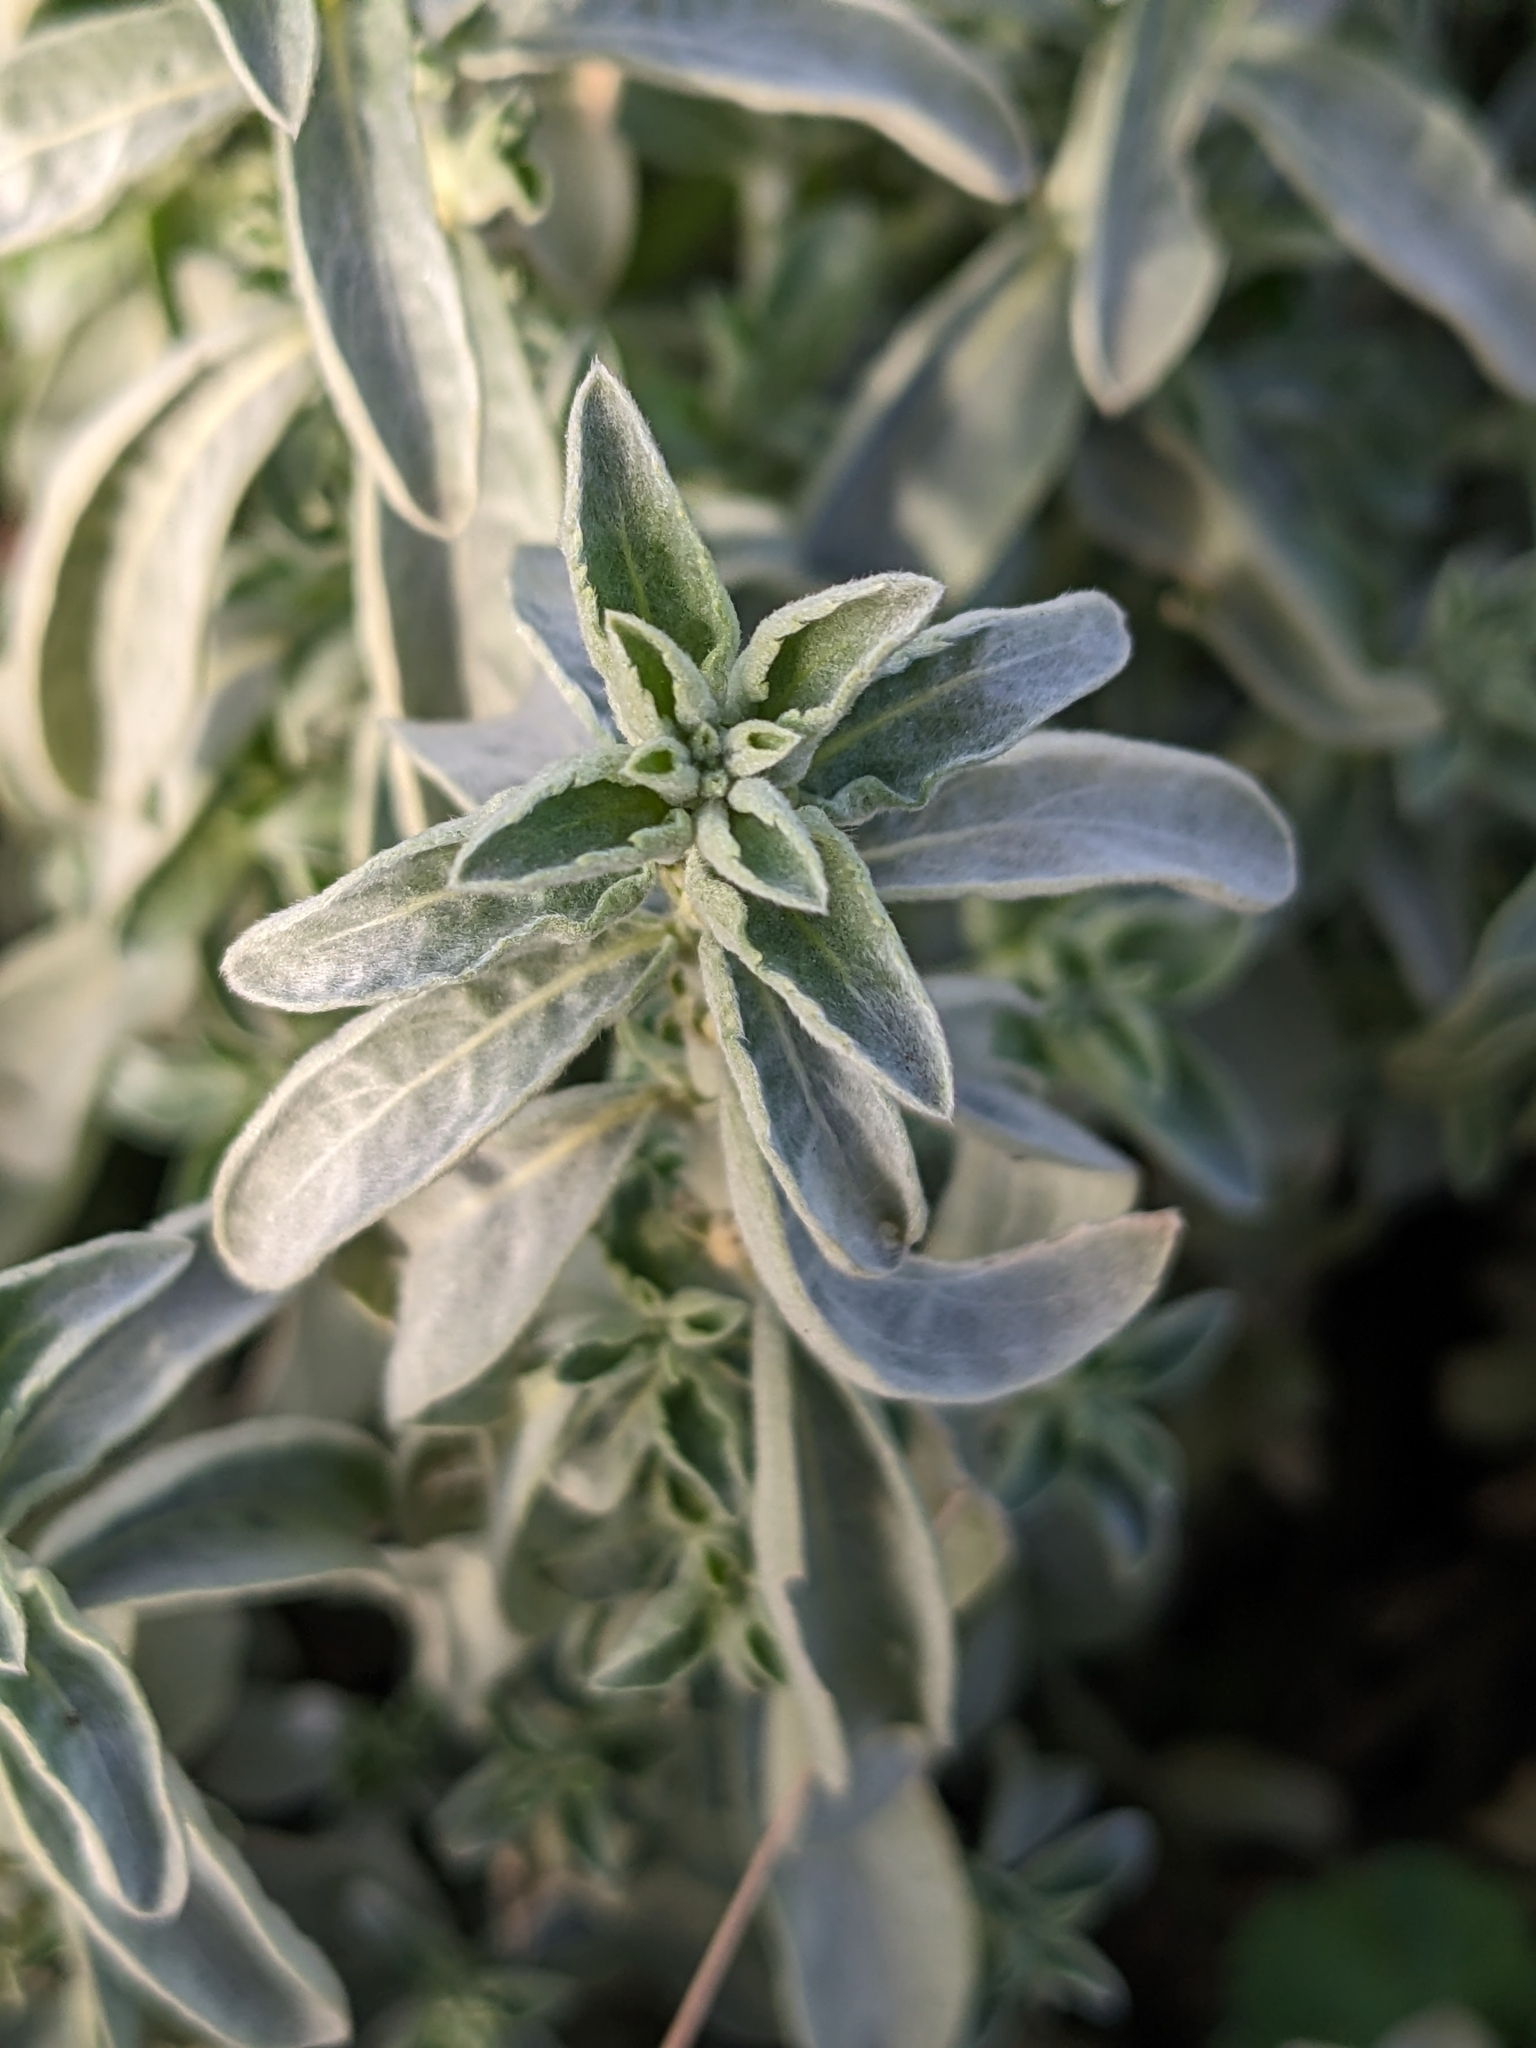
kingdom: Plantae
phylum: Tracheophyta
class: Magnoliopsida
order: Malpighiales
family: Euphorbiaceae
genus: Mercurialis
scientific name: Mercurialis tomentosa
